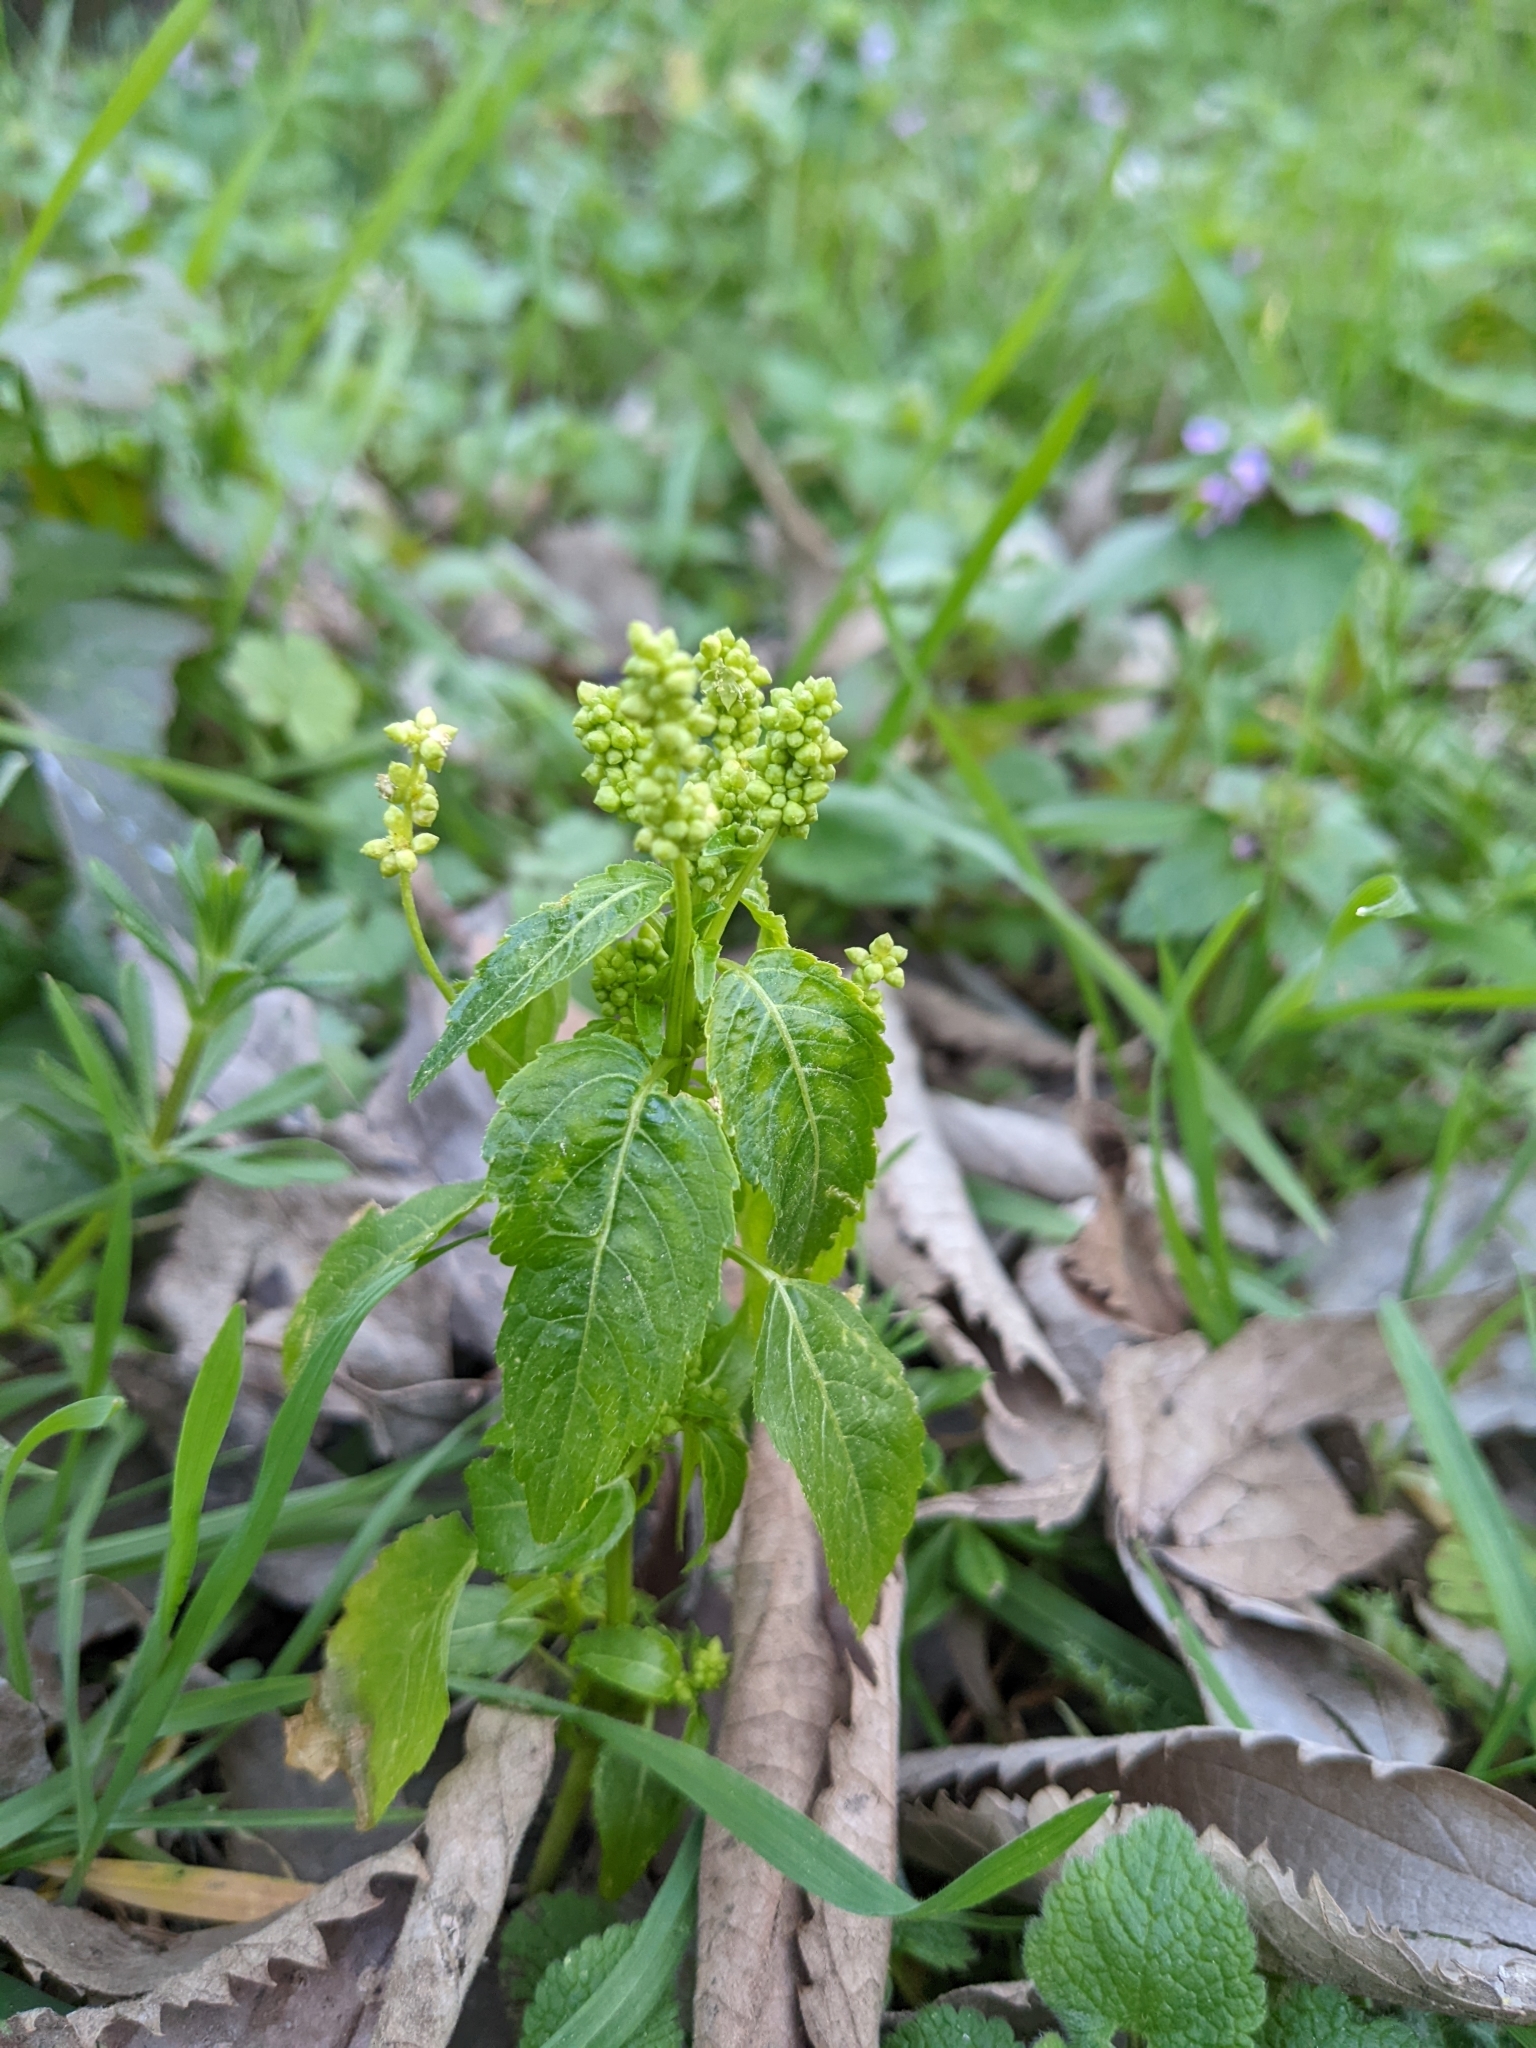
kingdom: Plantae
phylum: Tracheophyta
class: Magnoliopsida
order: Malpighiales
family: Euphorbiaceae
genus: Mercurialis
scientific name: Mercurialis annua
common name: Annual mercury
